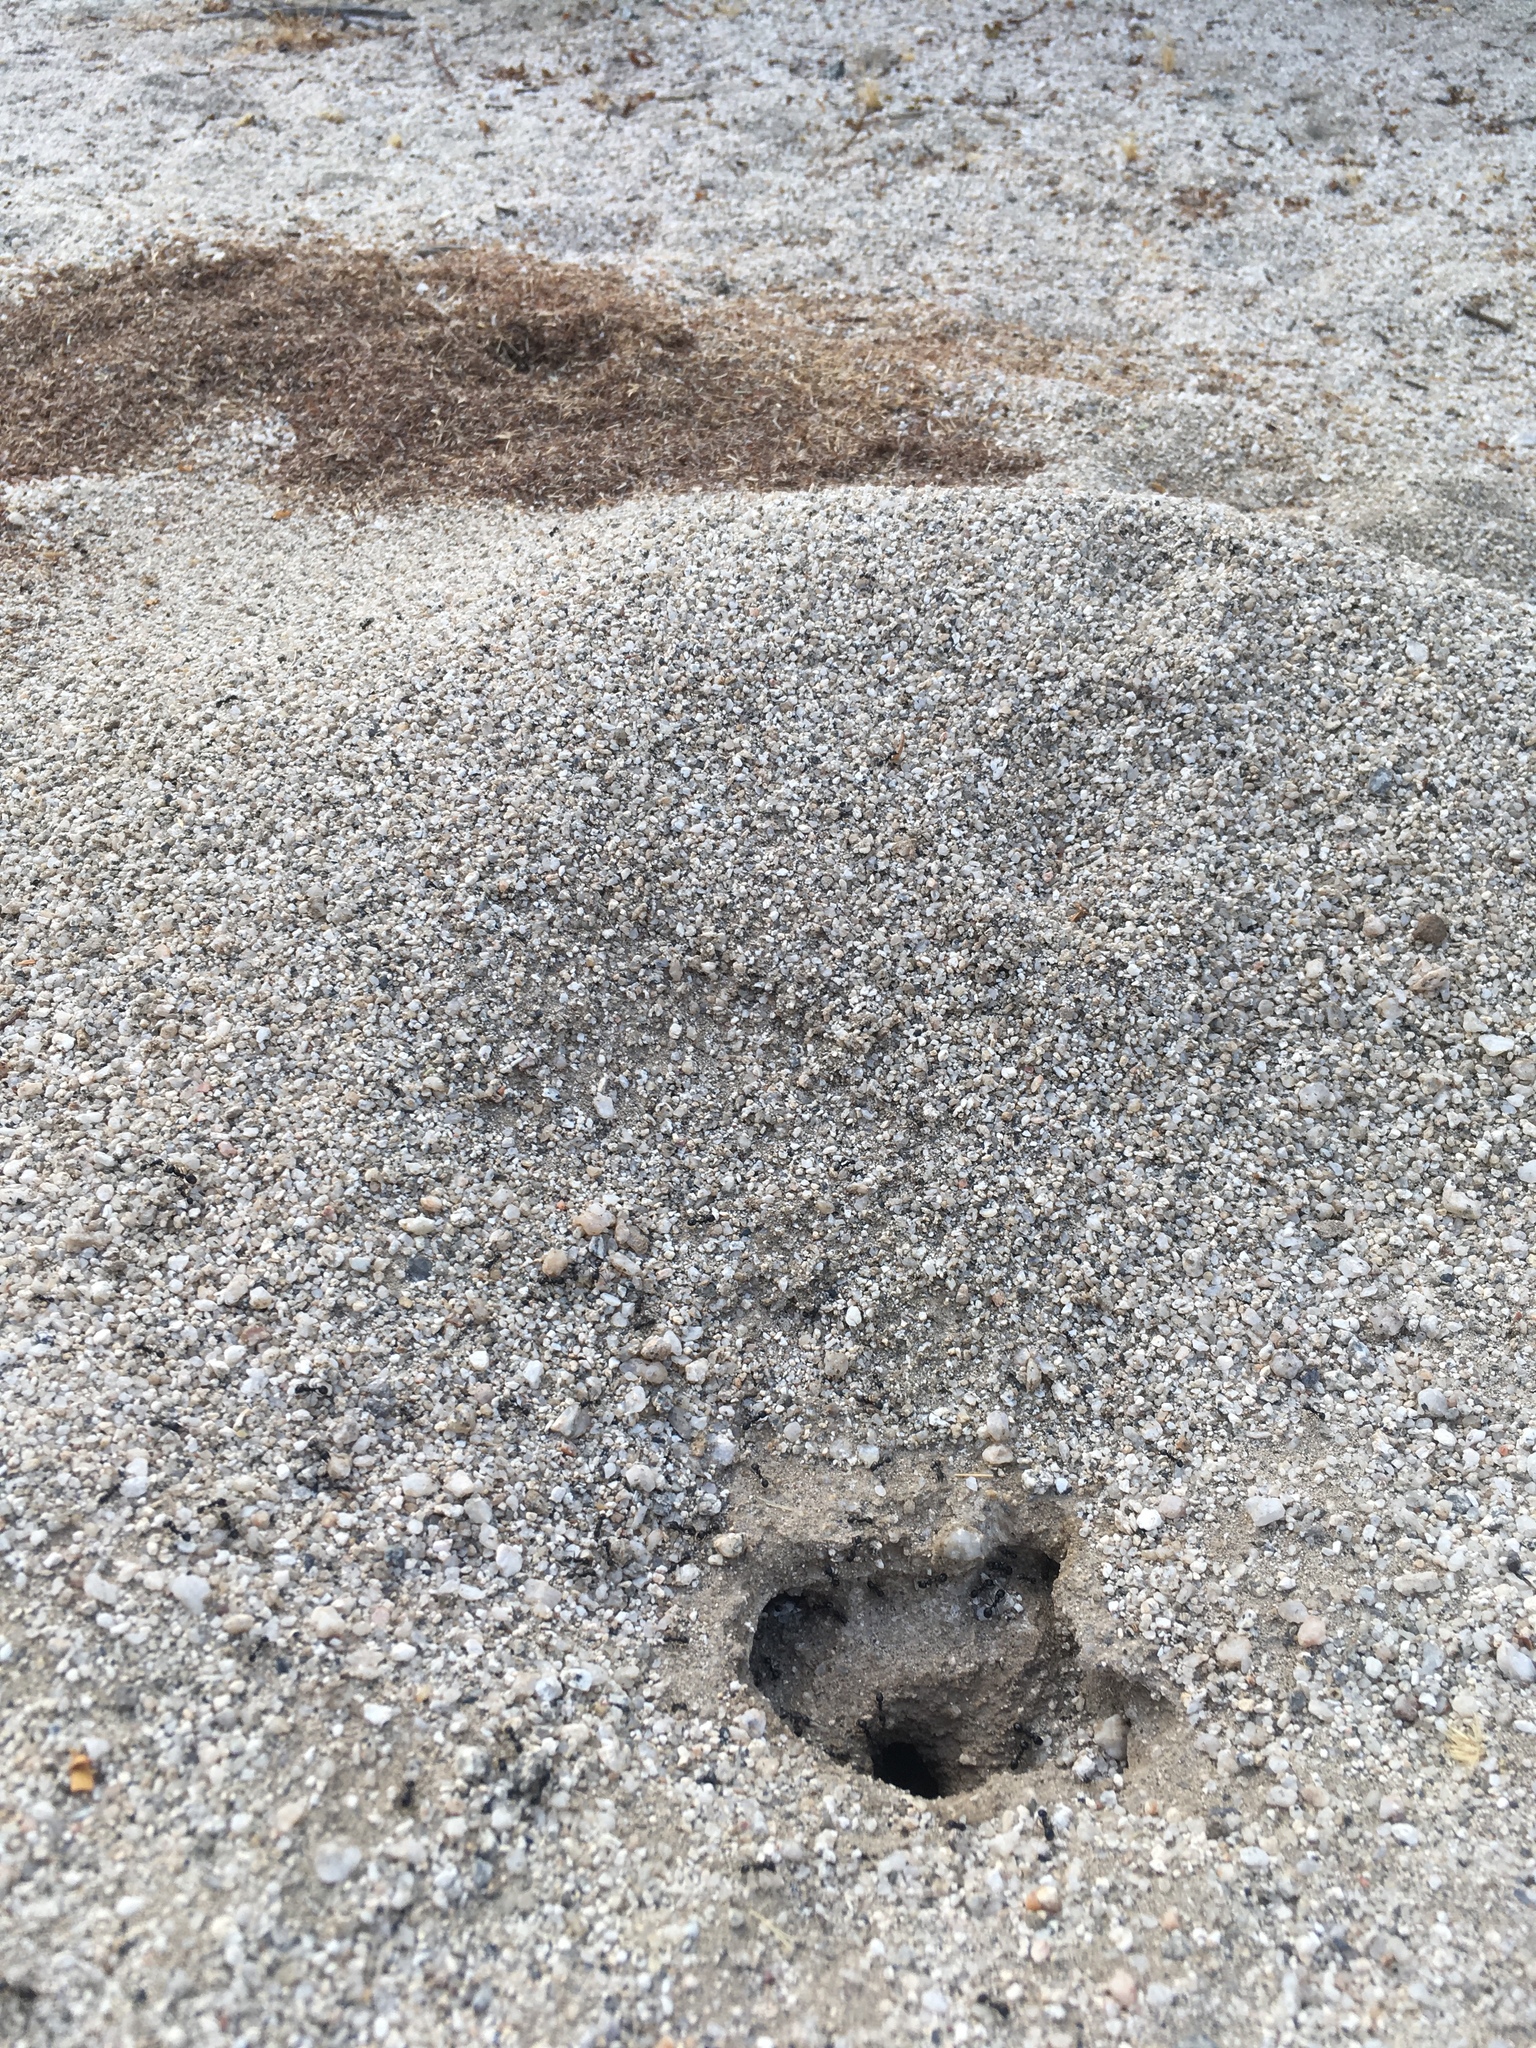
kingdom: Animalia
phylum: Arthropoda
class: Insecta
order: Hymenoptera
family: Formicidae
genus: Messor
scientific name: Messor pergandei
